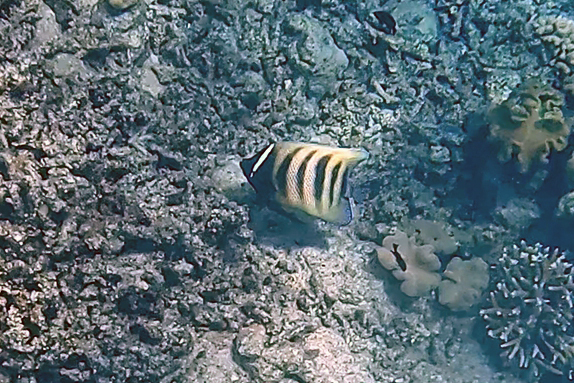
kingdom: Animalia
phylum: Chordata
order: Perciformes
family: Pomacanthidae
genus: Pomacanthus
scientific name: Pomacanthus sexstriatus
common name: Six-banded angelfish
